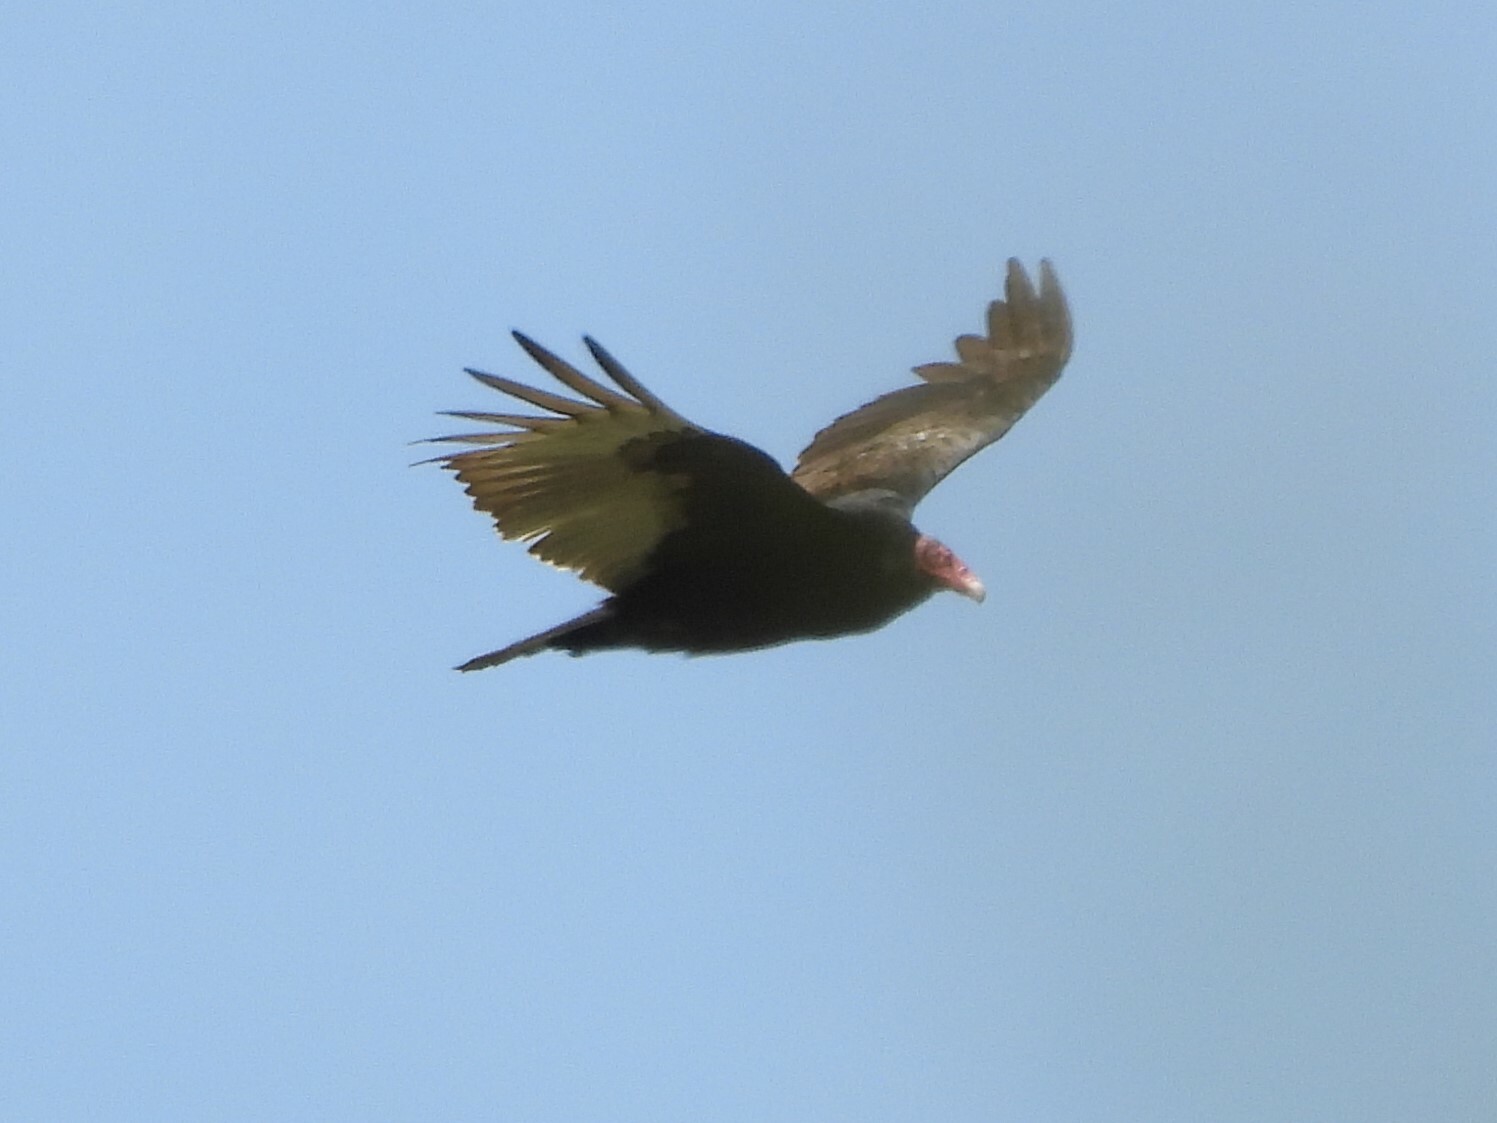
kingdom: Animalia
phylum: Chordata
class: Aves
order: Accipitriformes
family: Cathartidae
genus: Cathartes
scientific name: Cathartes aura
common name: Turkey vulture
